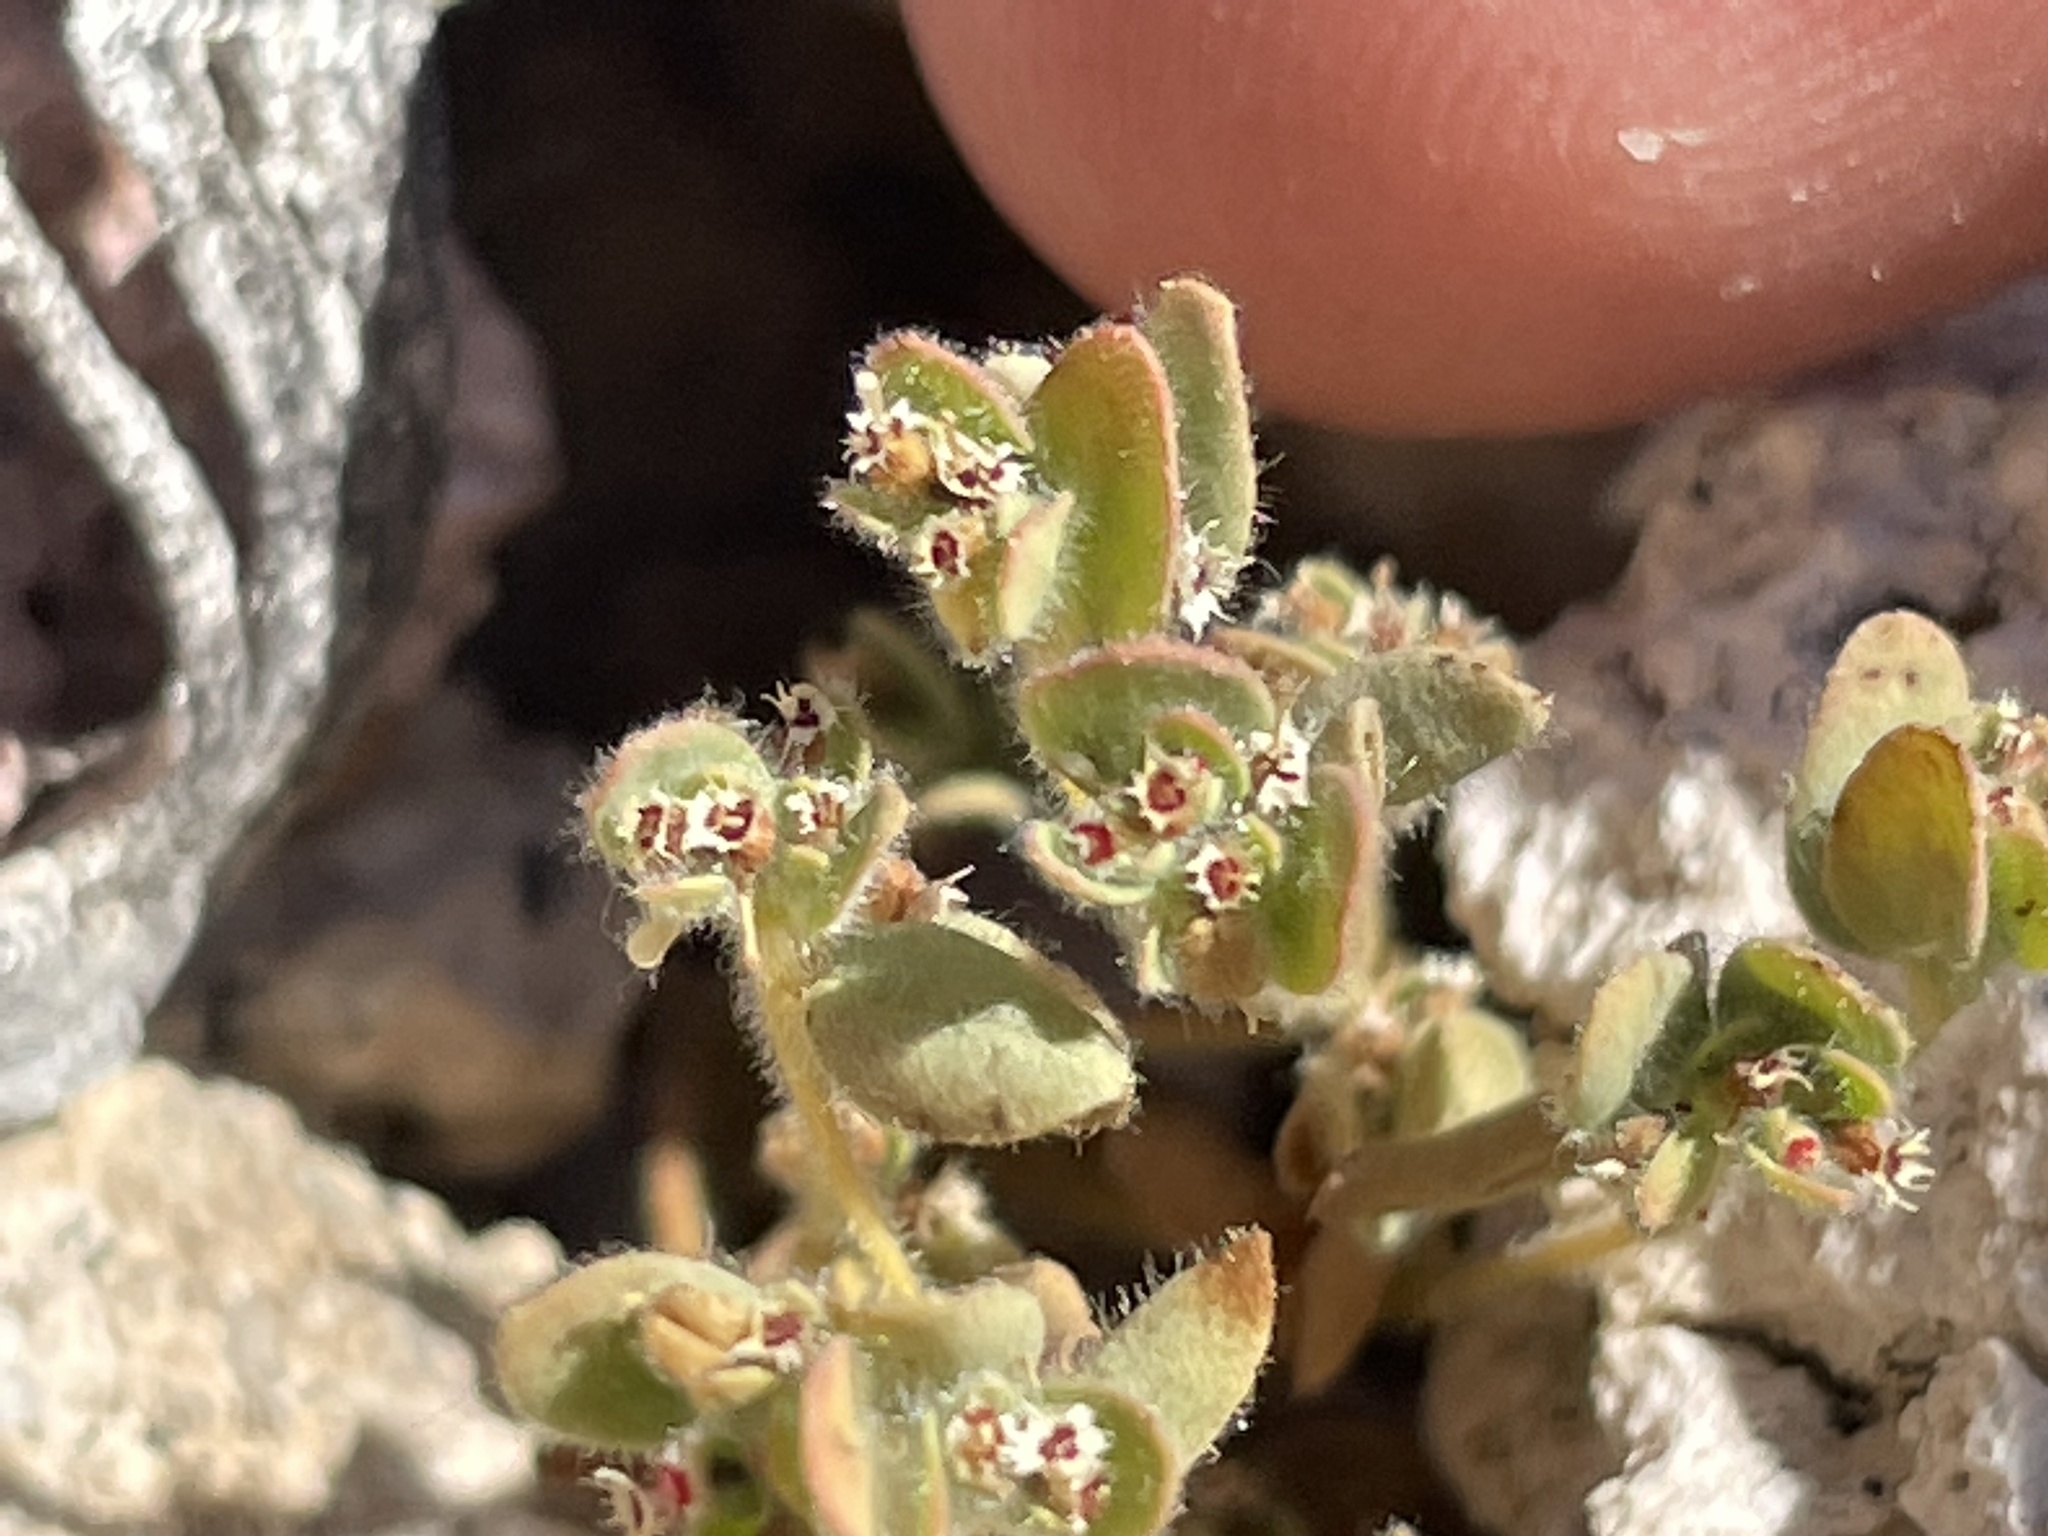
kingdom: Plantae
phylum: Tracheophyta
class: Magnoliopsida
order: Malpighiales
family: Euphorbiaceae
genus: Euphorbia
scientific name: Euphorbia setiloba
